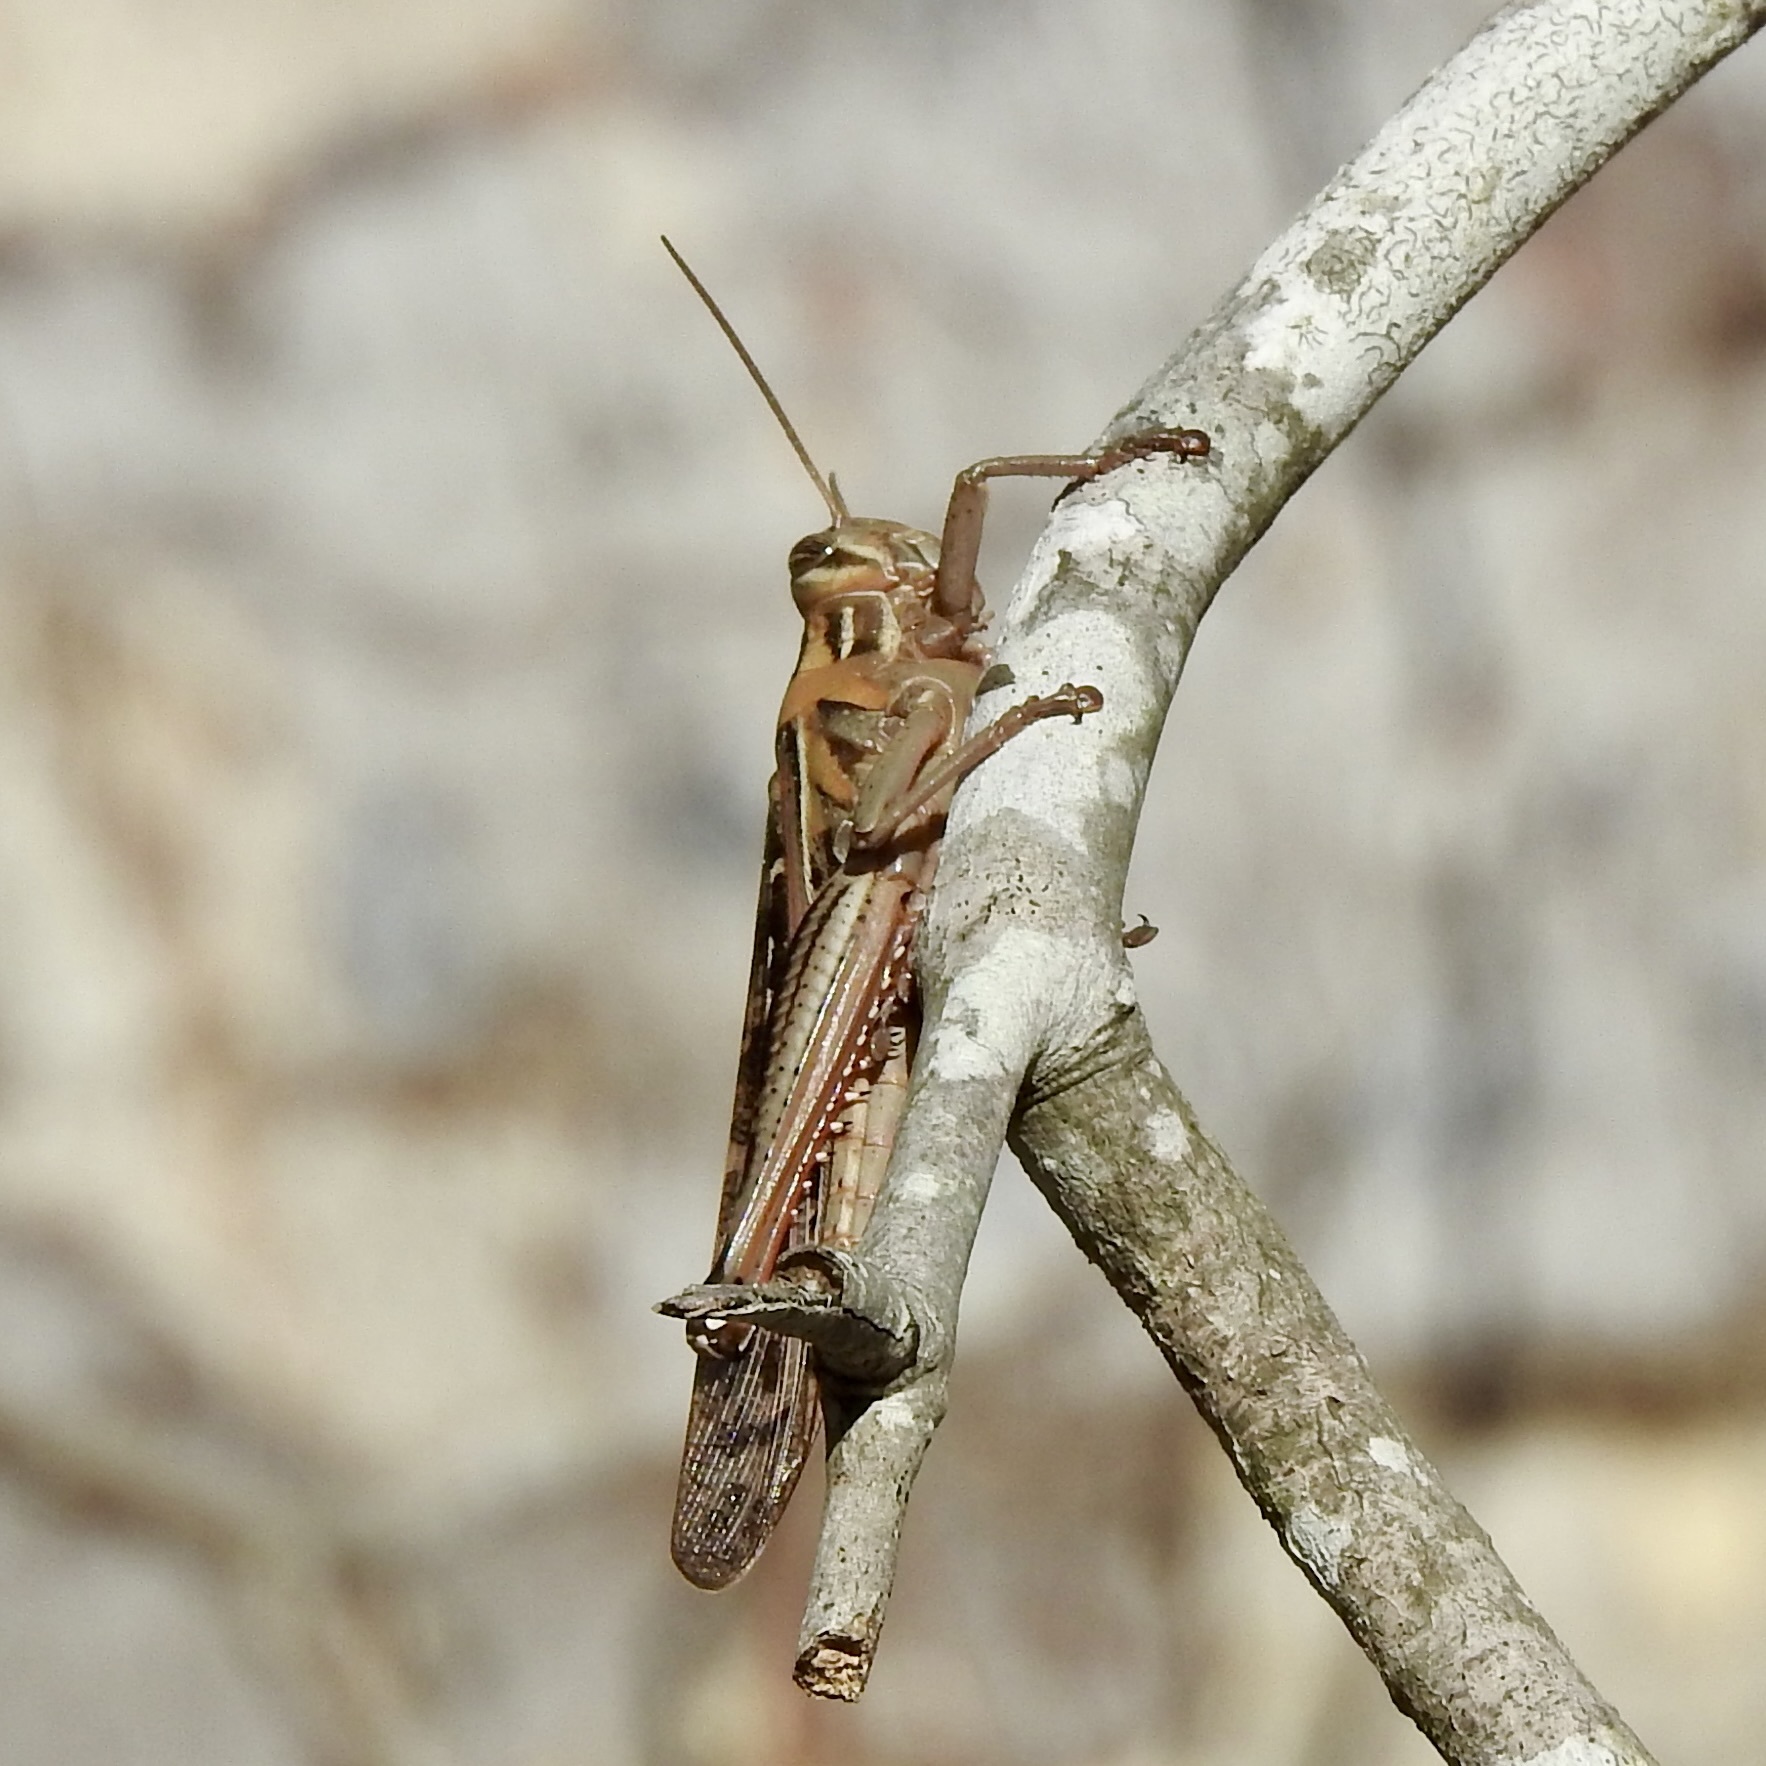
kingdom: Animalia
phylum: Arthropoda
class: Insecta
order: Orthoptera
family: Acrididae
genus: Schistocerca
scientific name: Schistocerca americana
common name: American bird locust
